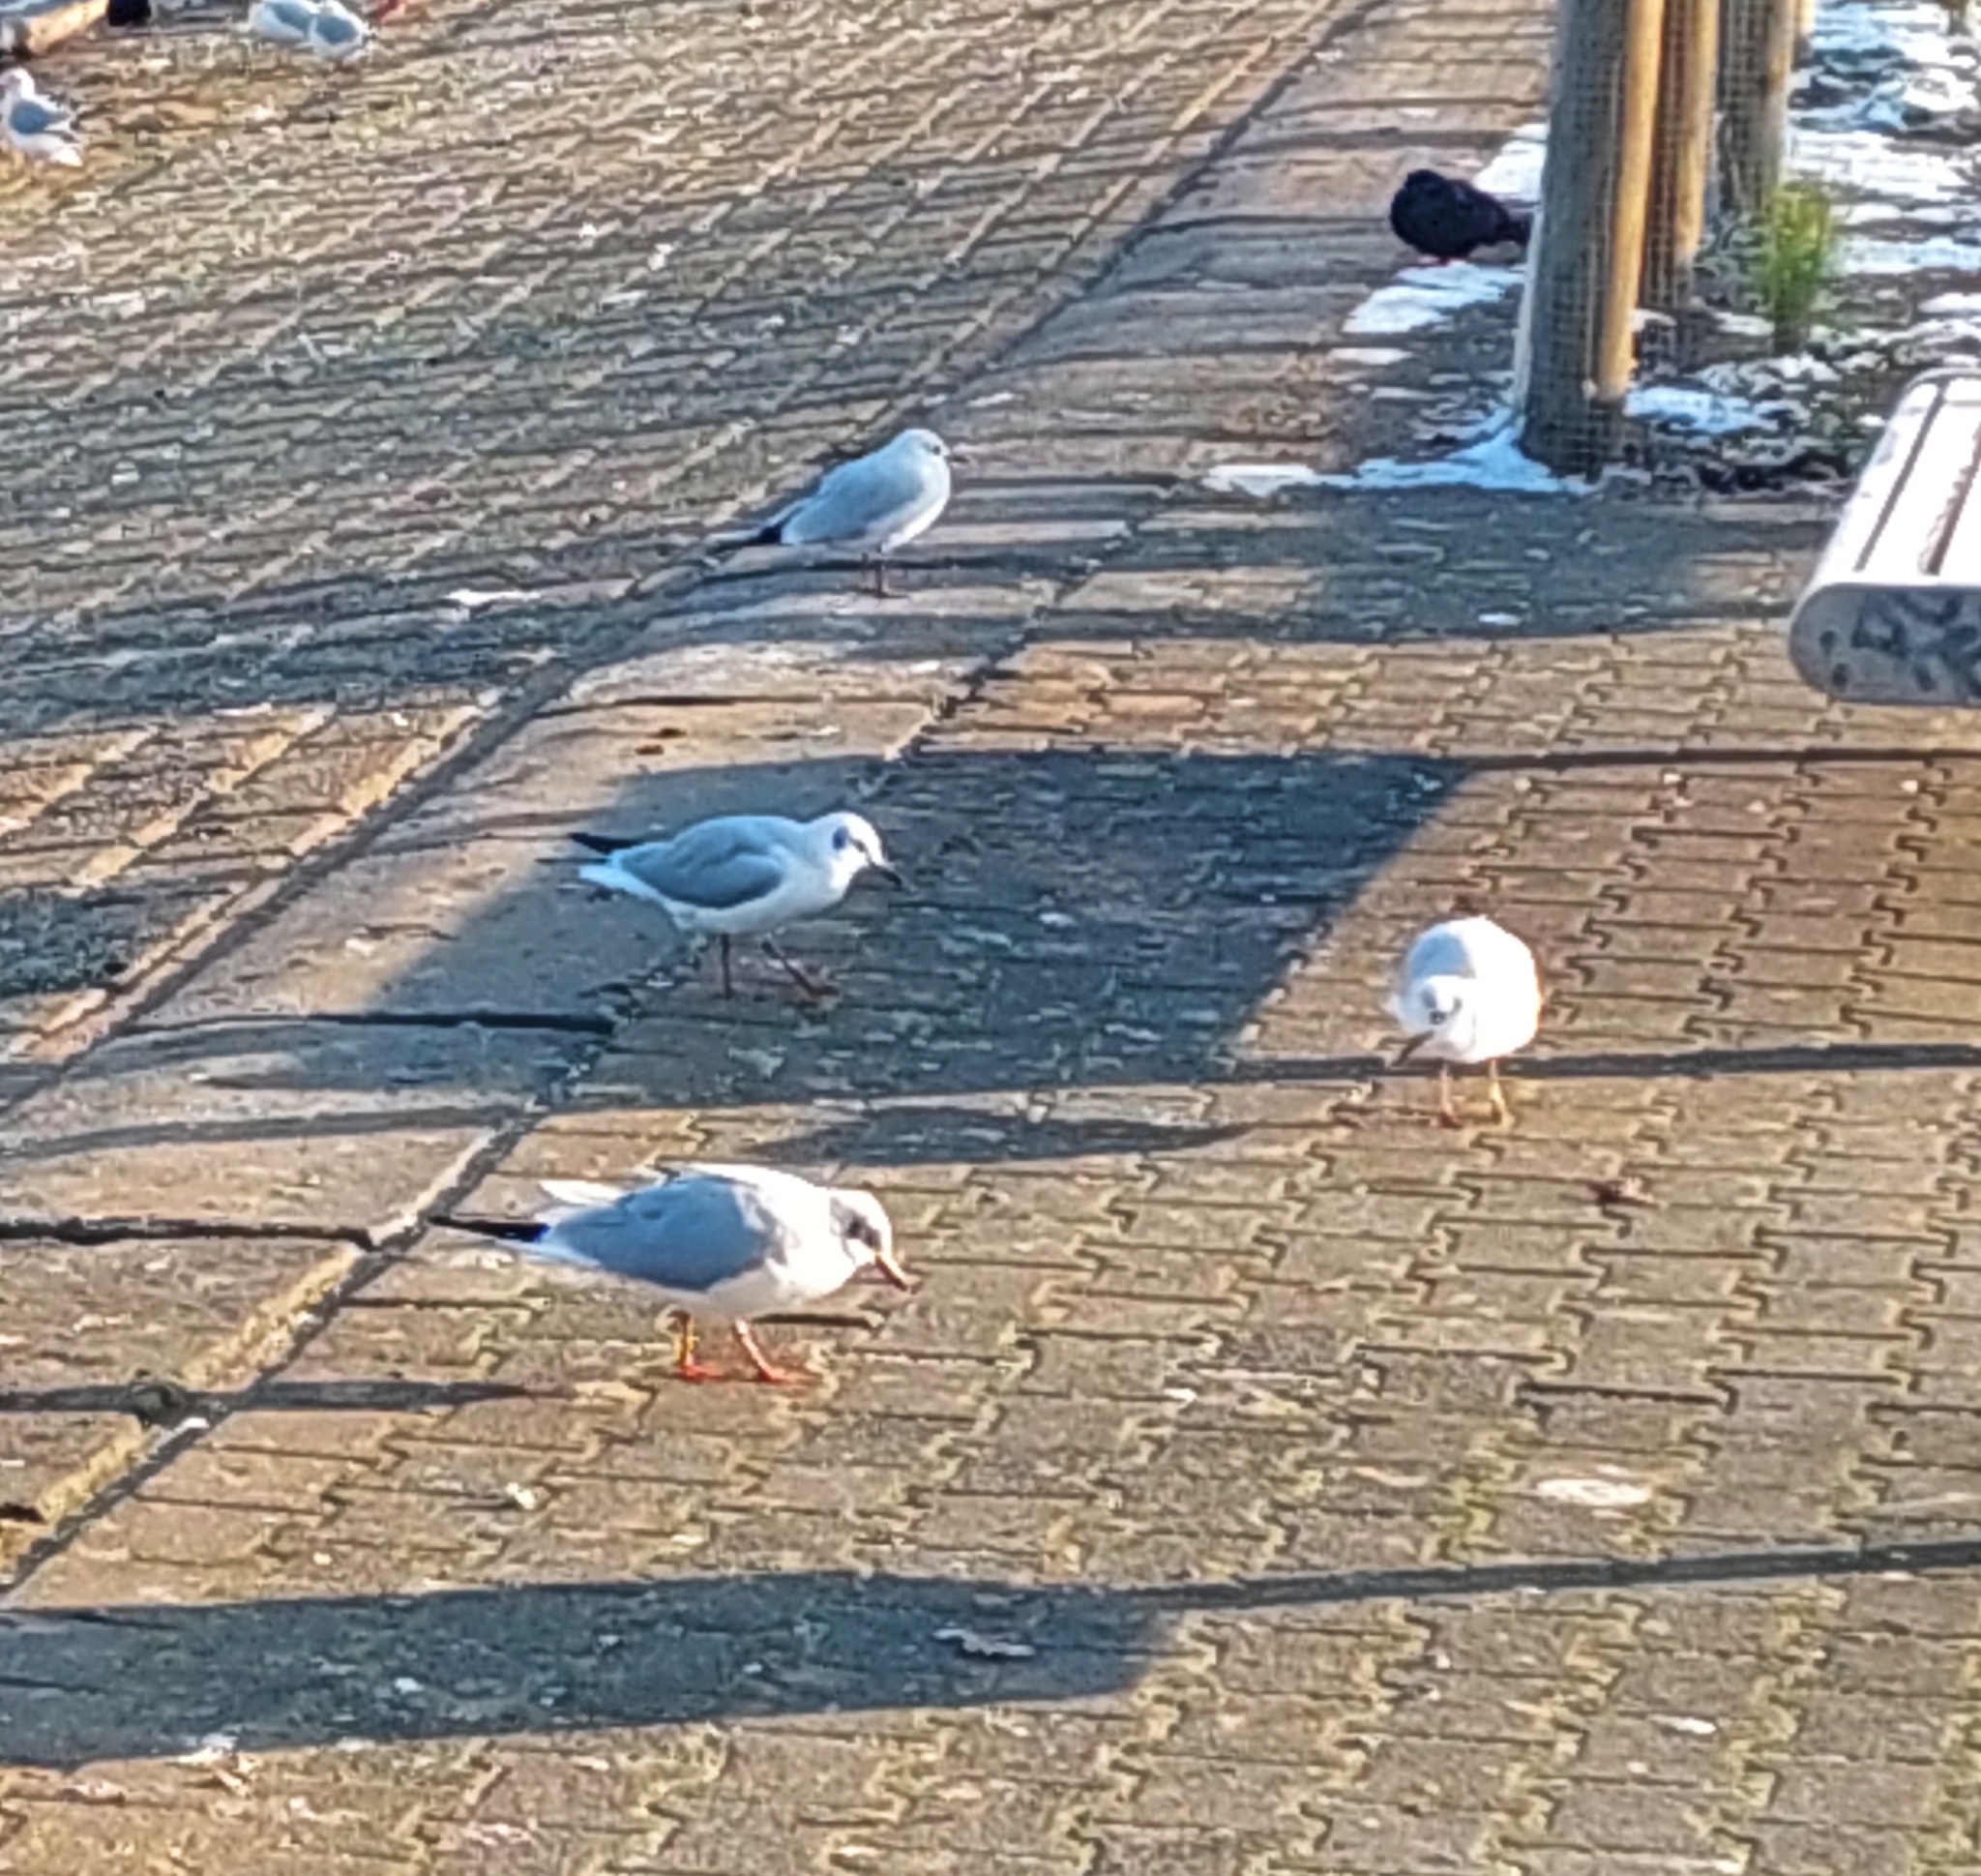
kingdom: Animalia
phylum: Chordata
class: Aves
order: Charadriiformes
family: Laridae
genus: Chroicocephalus
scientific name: Chroicocephalus ridibundus
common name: Black-headed gull
